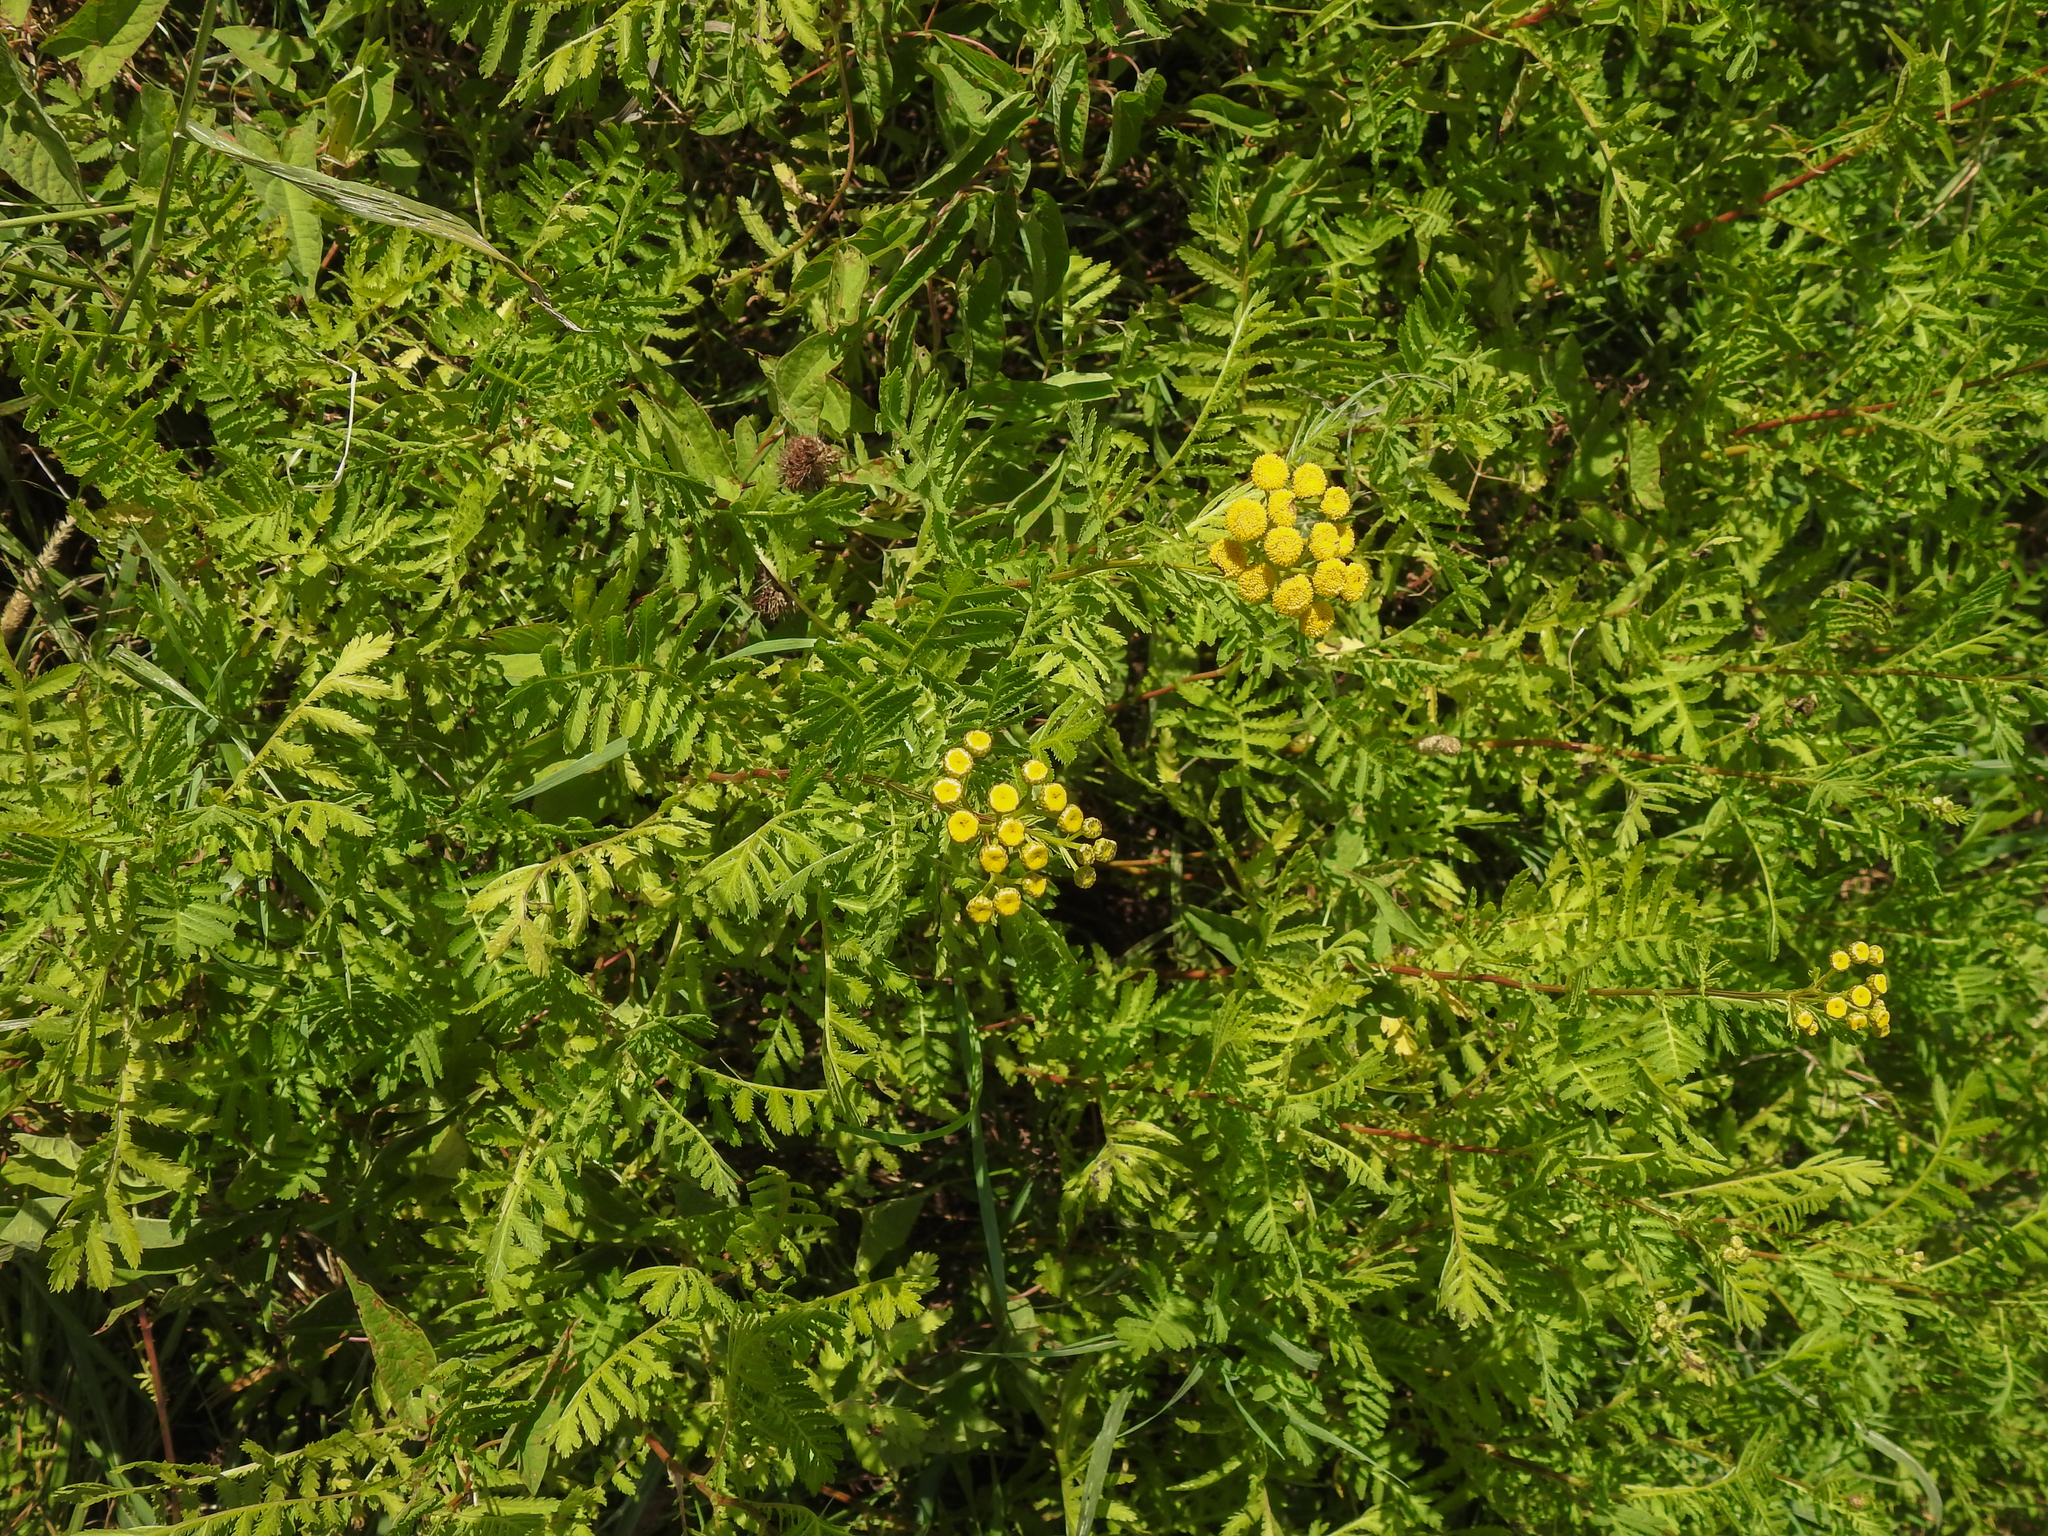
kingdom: Plantae
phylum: Tracheophyta
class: Magnoliopsida
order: Asterales
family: Asteraceae
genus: Tanacetum
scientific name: Tanacetum vulgare
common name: Common tansy
